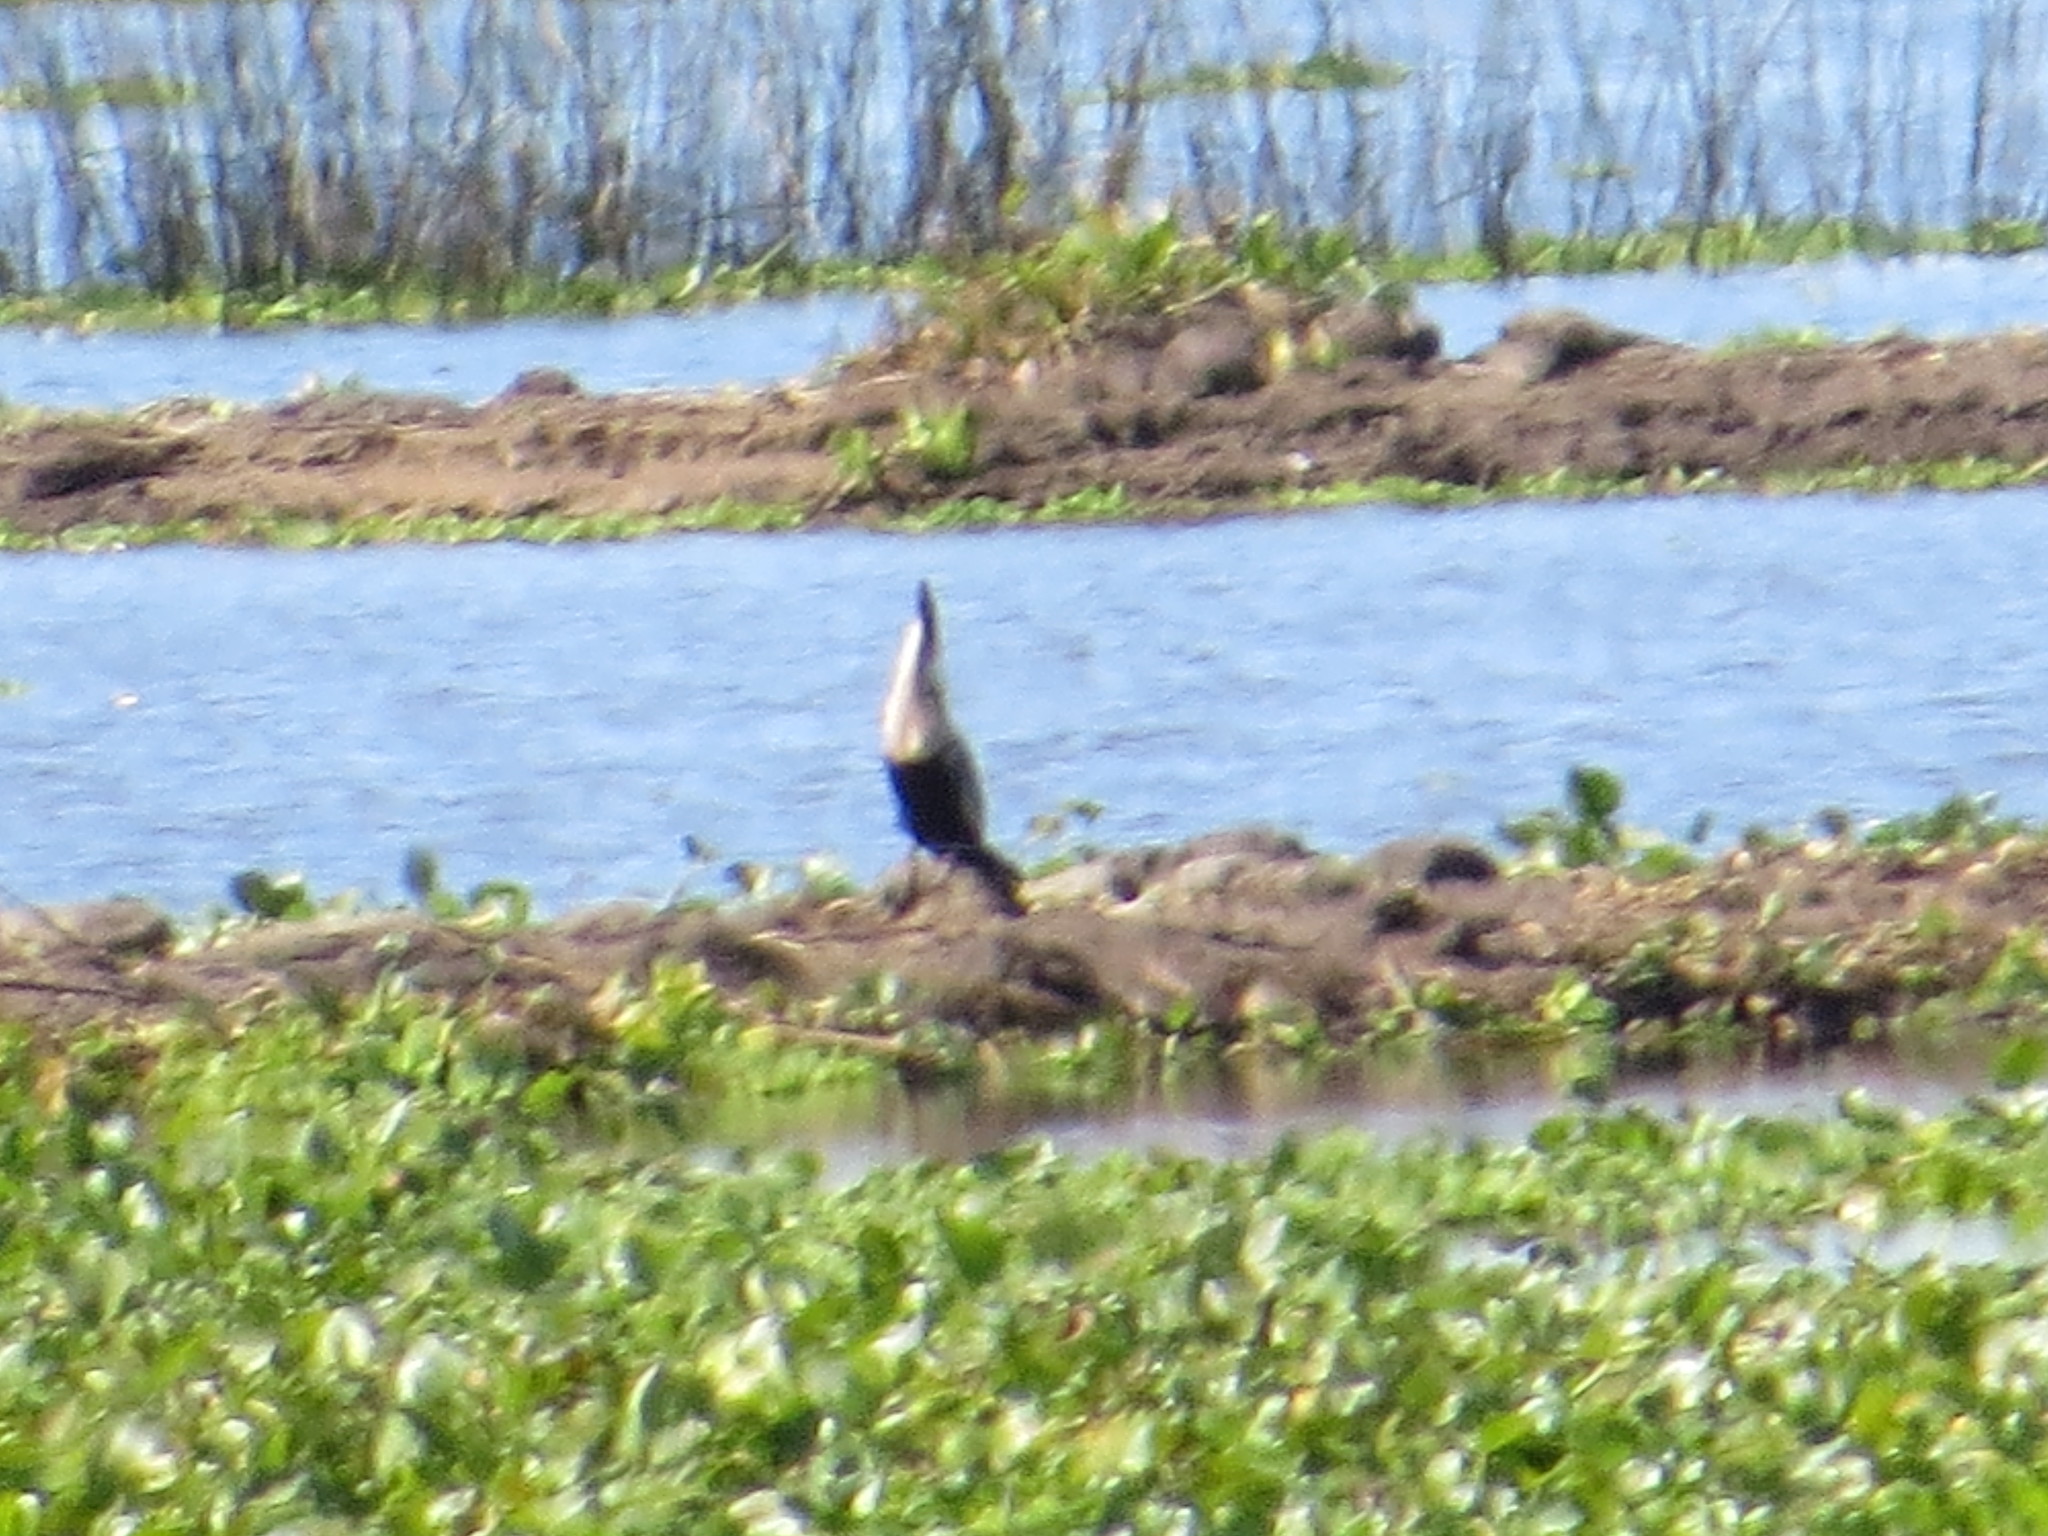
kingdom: Animalia
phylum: Chordata
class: Aves
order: Suliformes
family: Anhingidae
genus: Anhinga
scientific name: Anhinga anhinga
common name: Anhinga
